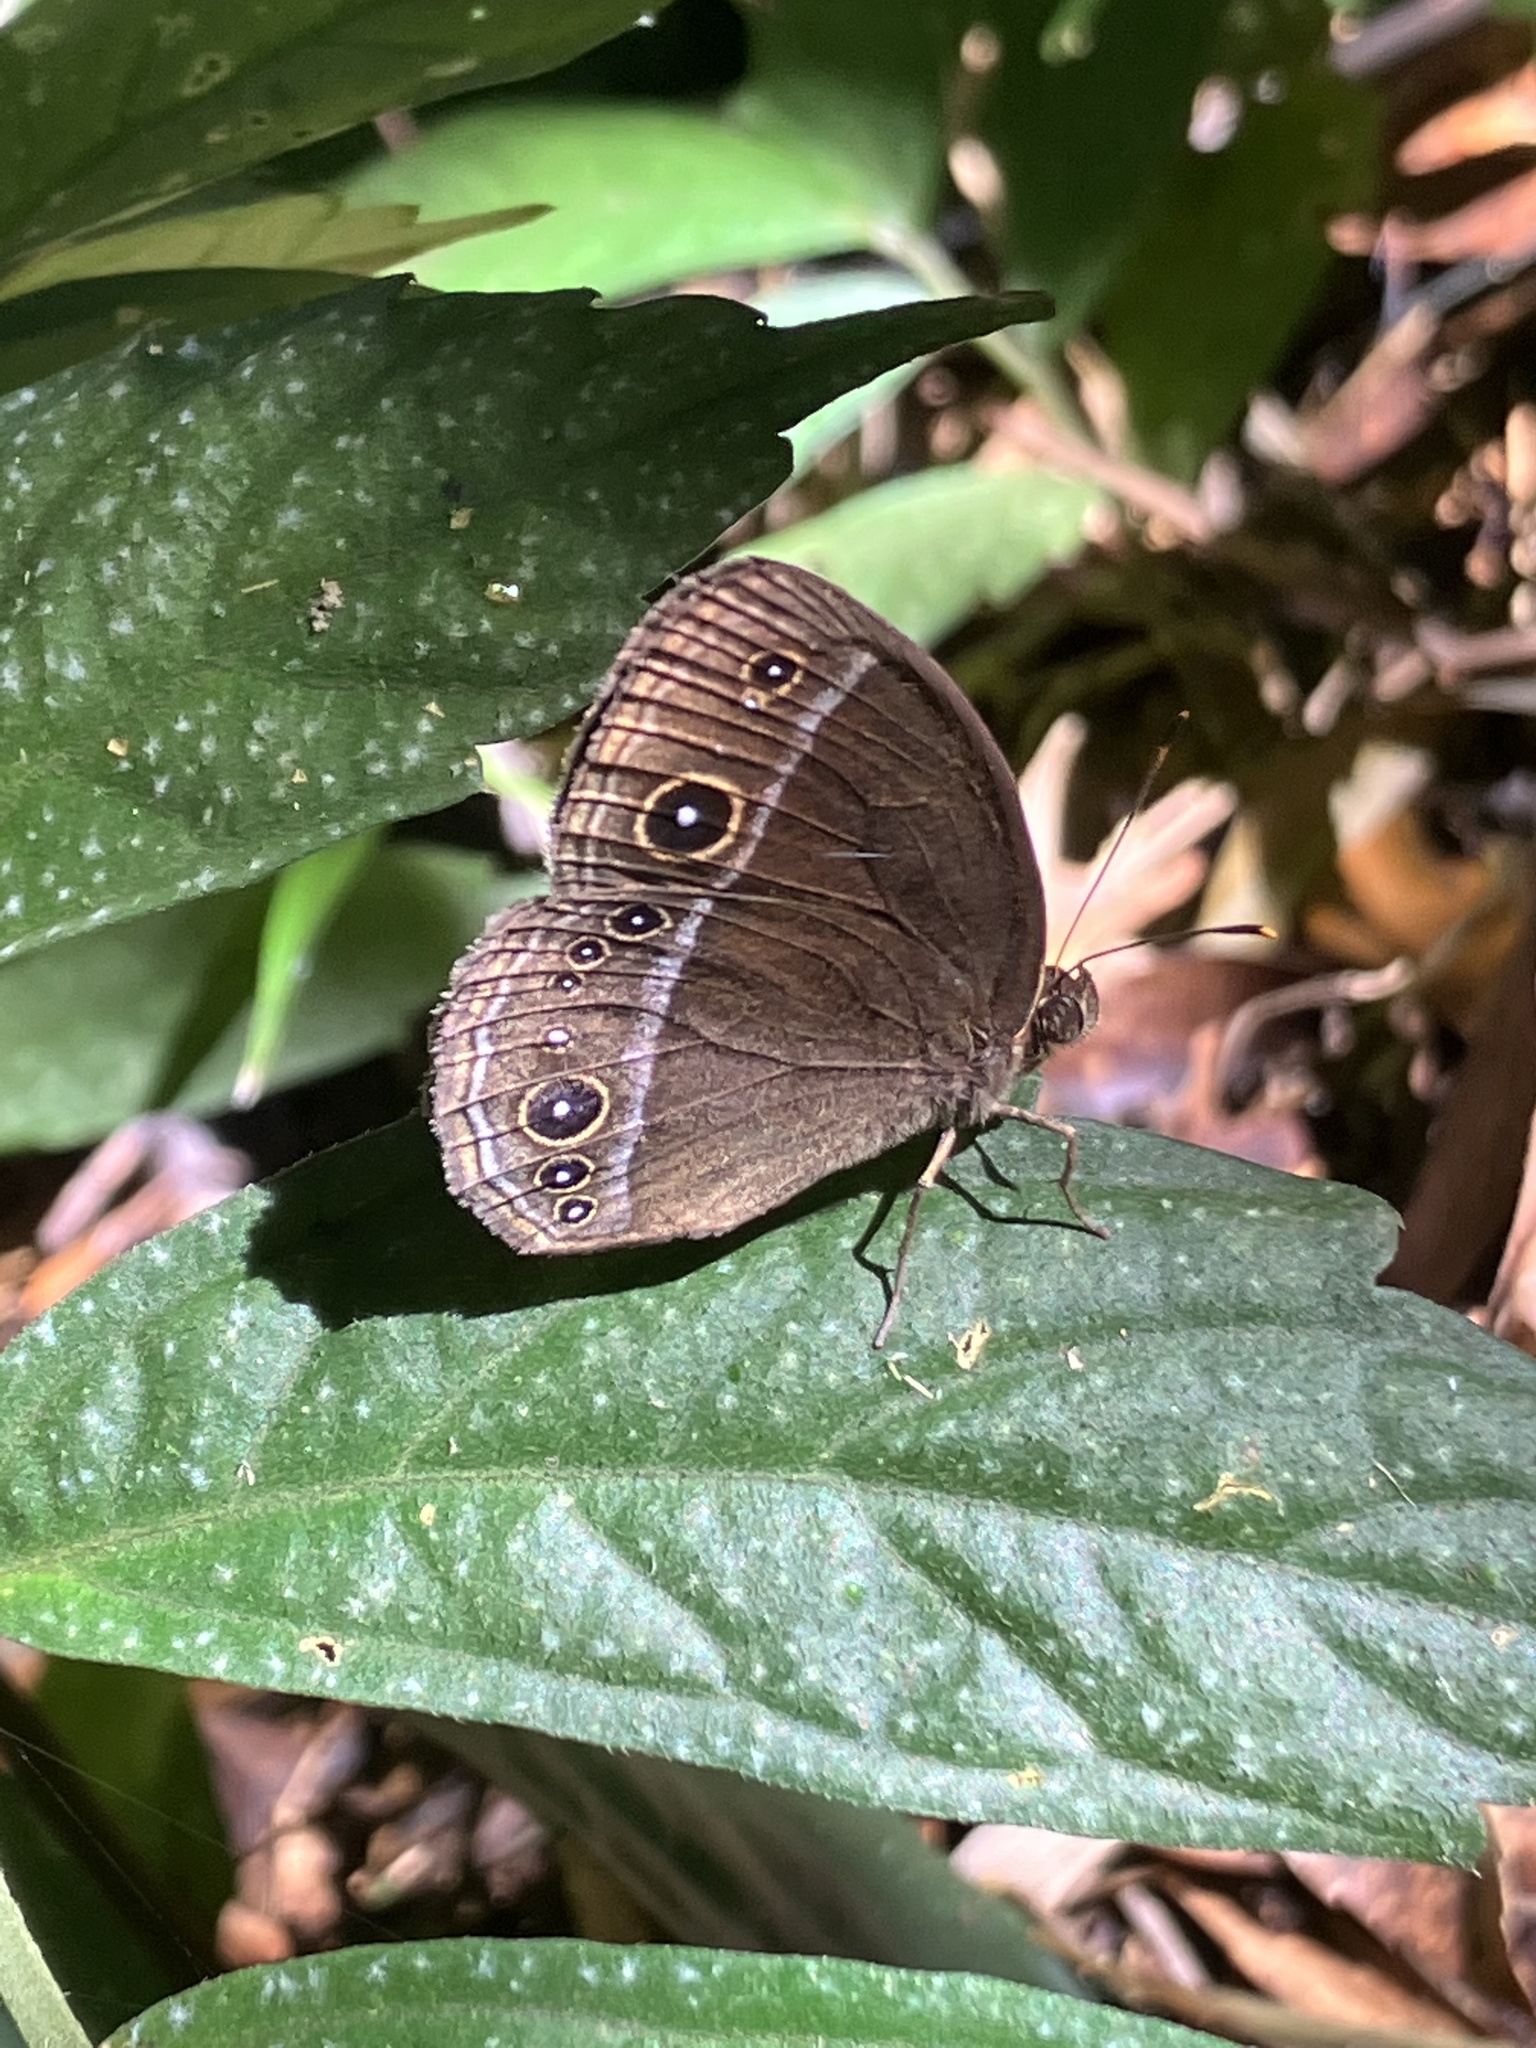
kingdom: Animalia
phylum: Arthropoda
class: Insecta
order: Lepidoptera
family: Nymphalidae
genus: Mycalesis
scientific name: Mycalesis francisca
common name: Lilacine bushbrown
